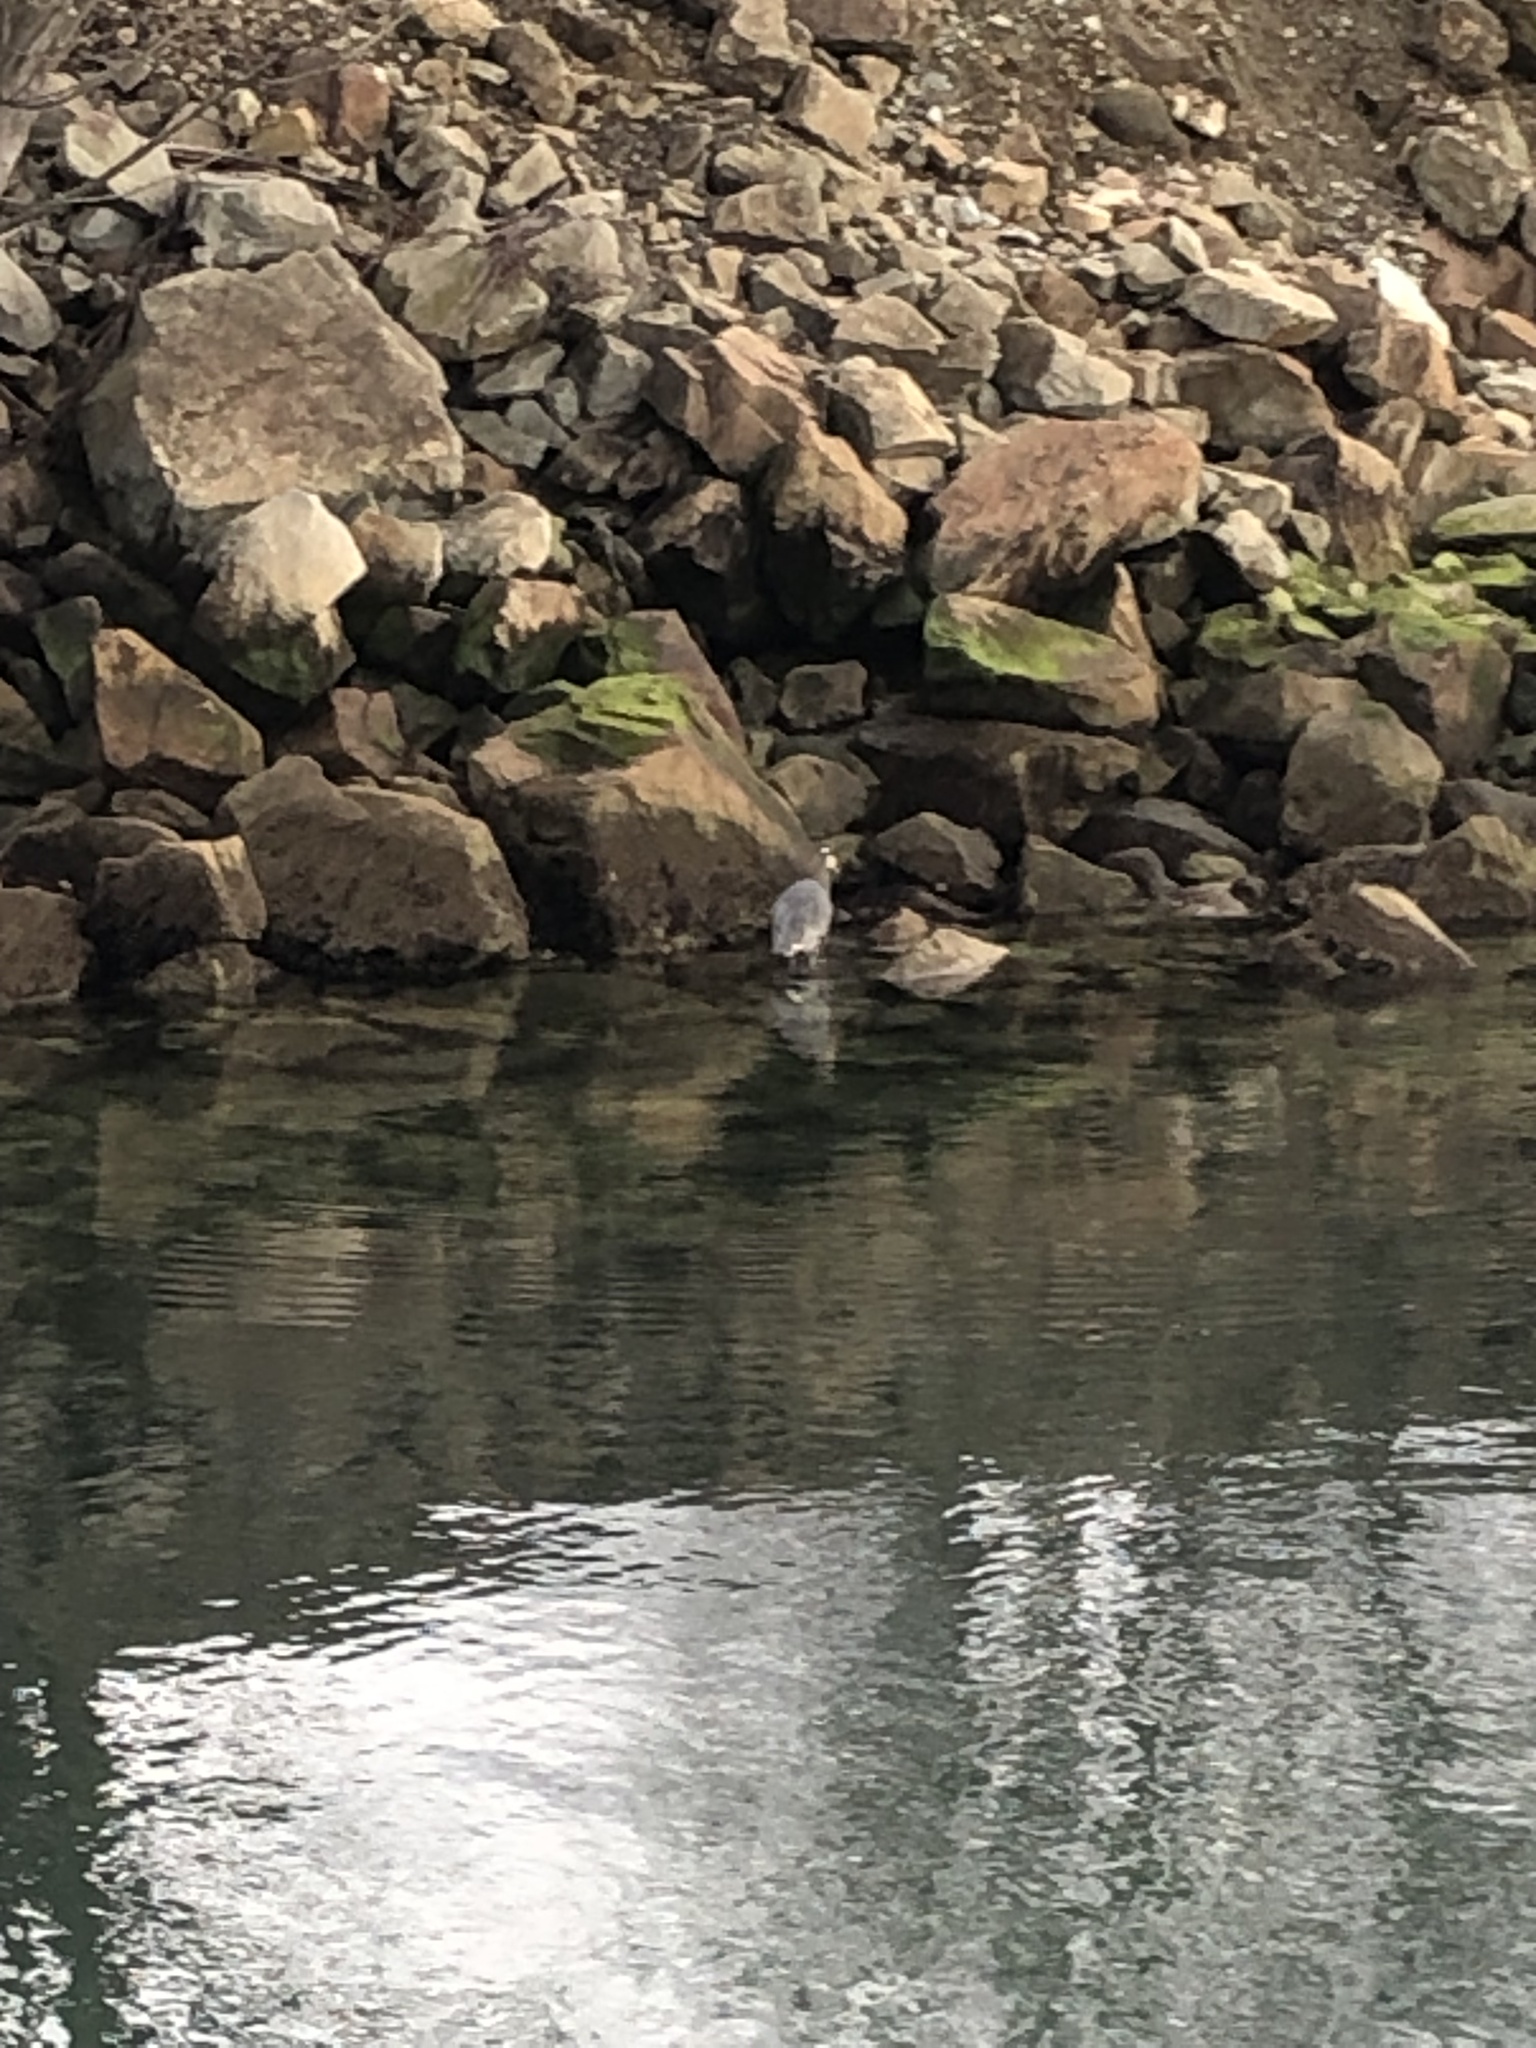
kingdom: Animalia
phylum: Chordata
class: Aves
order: Pelecaniformes
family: Ardeidae
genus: Ardea
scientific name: Ardea herodias
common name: Great blue heron
